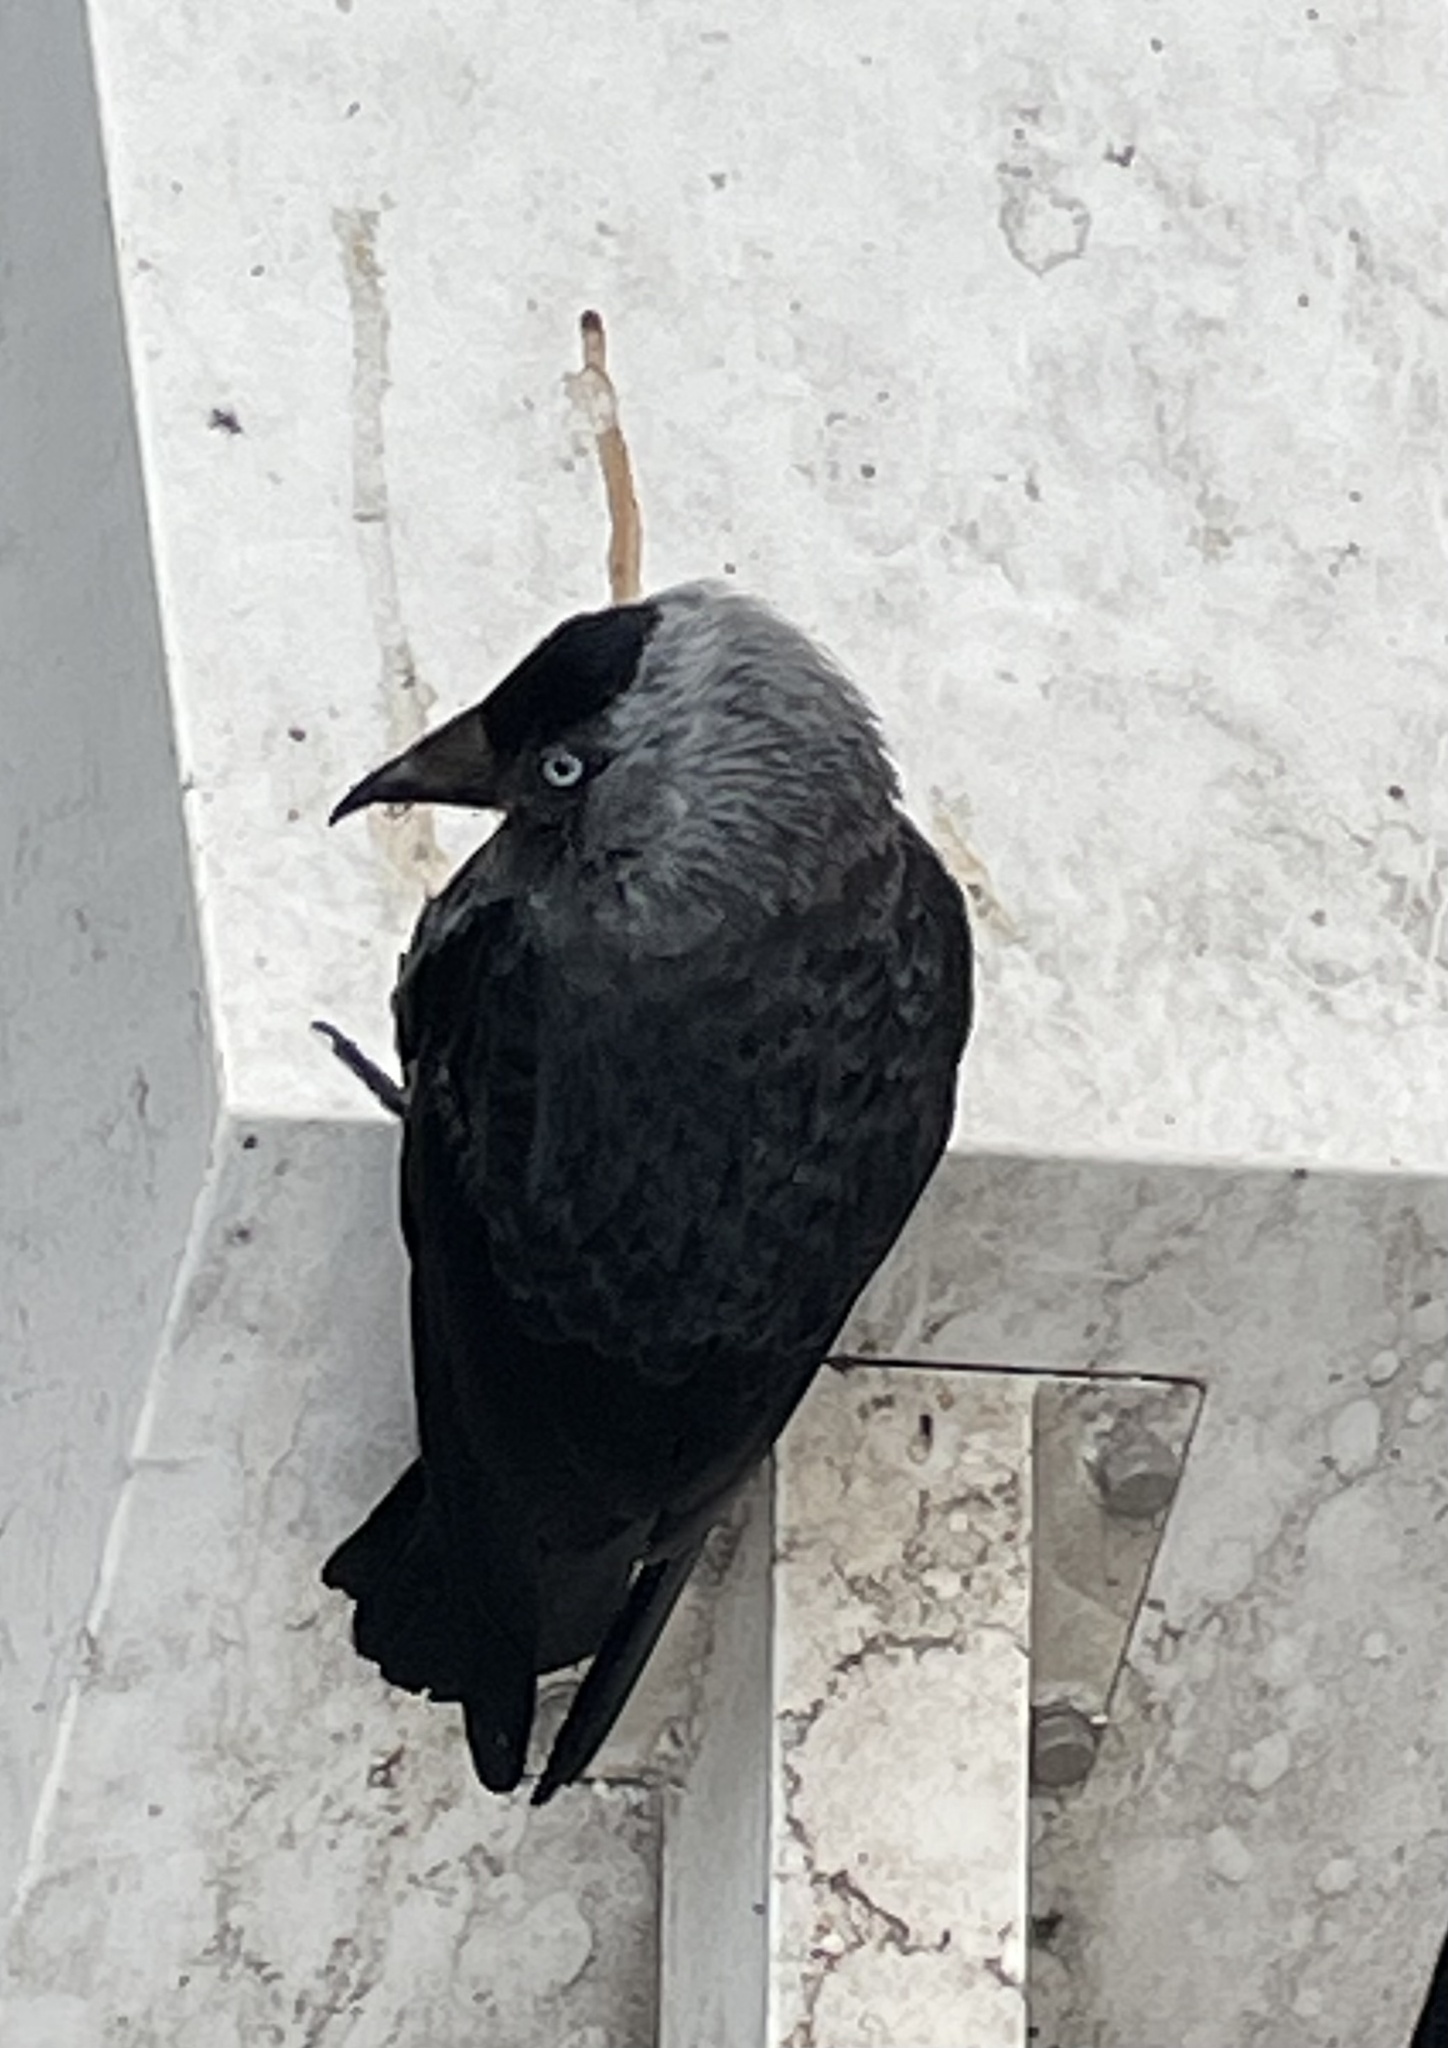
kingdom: Animalia
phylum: Chordata
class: Aves
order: Passeriformes
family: Corvidae
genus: Coloeus
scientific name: Coloeus monedula
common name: Western jackdaw
